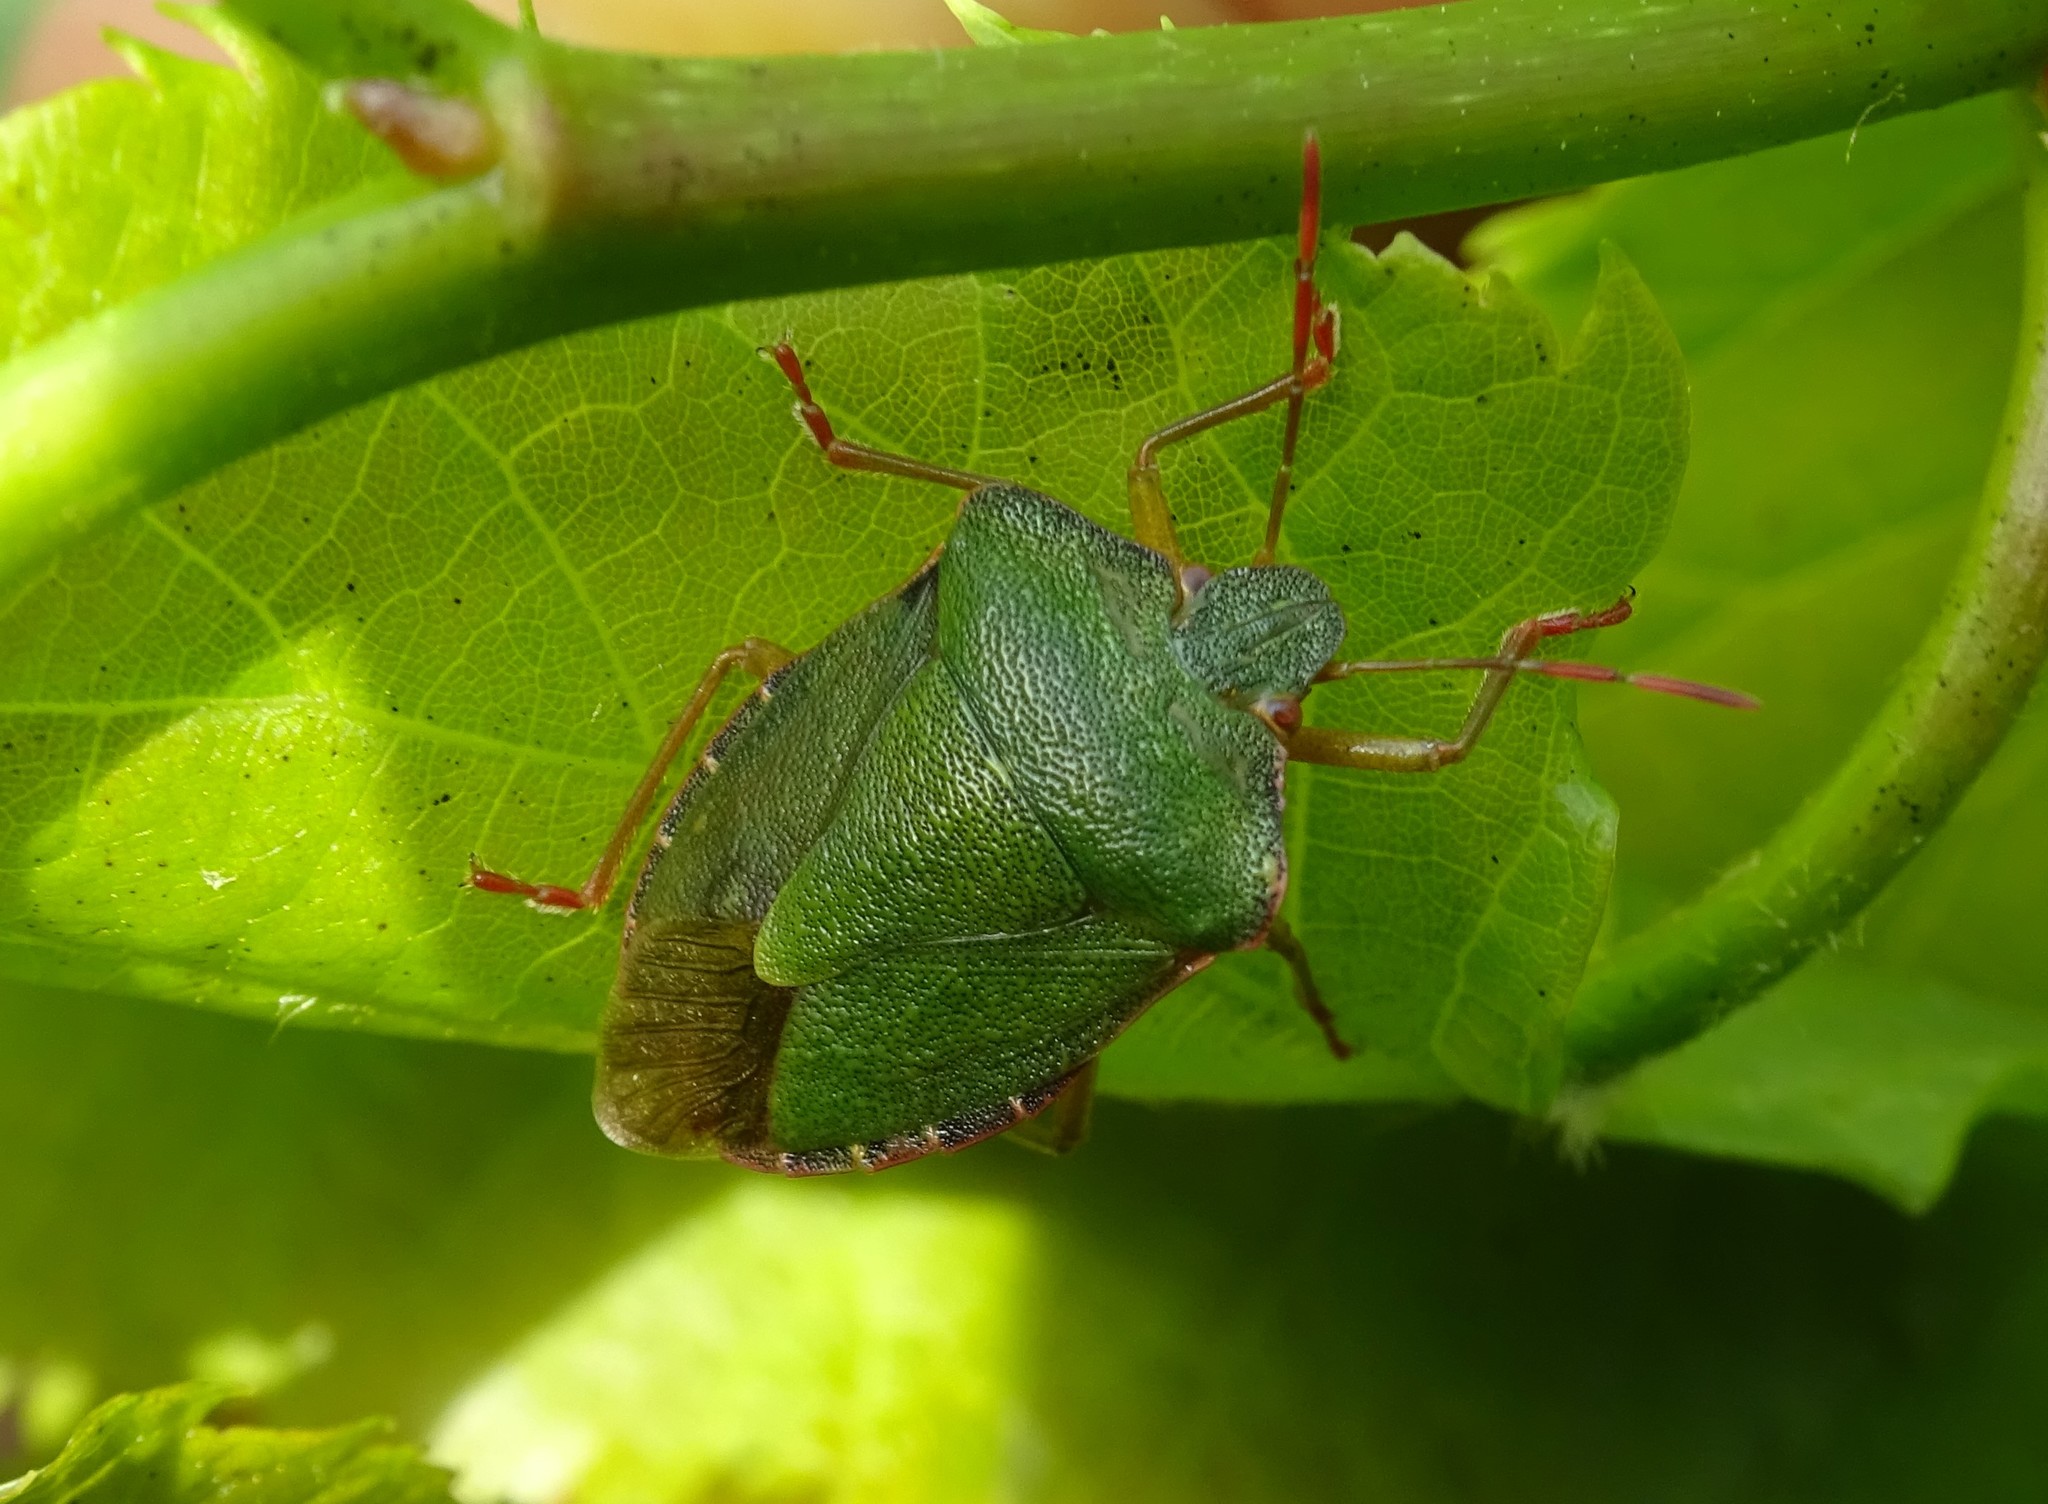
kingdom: Animalia
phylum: Arthropoda
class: Insecta
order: Hemiptera
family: Pentatomidae
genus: Palomena
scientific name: Palomena prasina
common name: Green shieldbug
